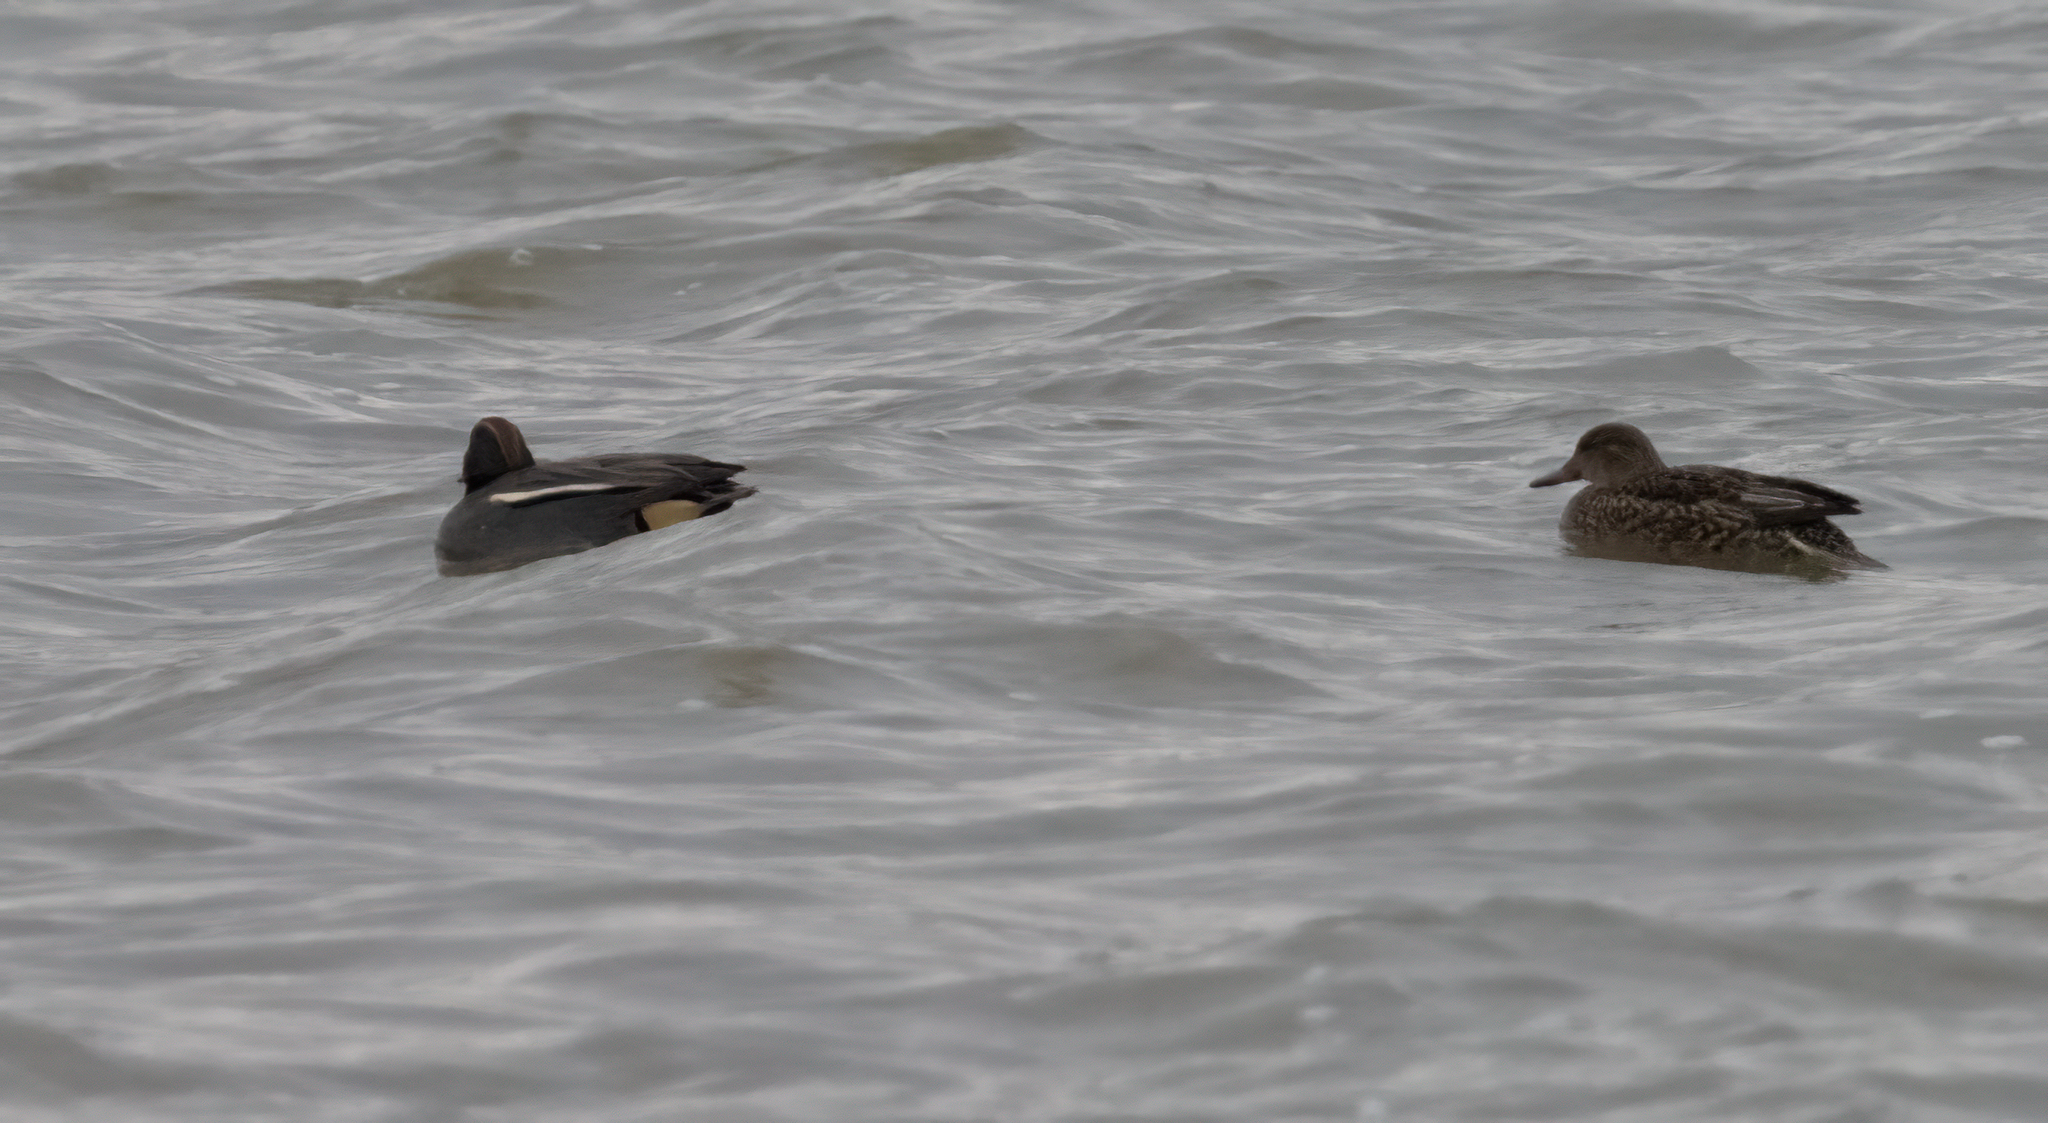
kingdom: Animalia
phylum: Chordata
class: Aves
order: Anseriformes
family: Anatidae
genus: Anas
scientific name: Anas crecca
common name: Eurasian teal
